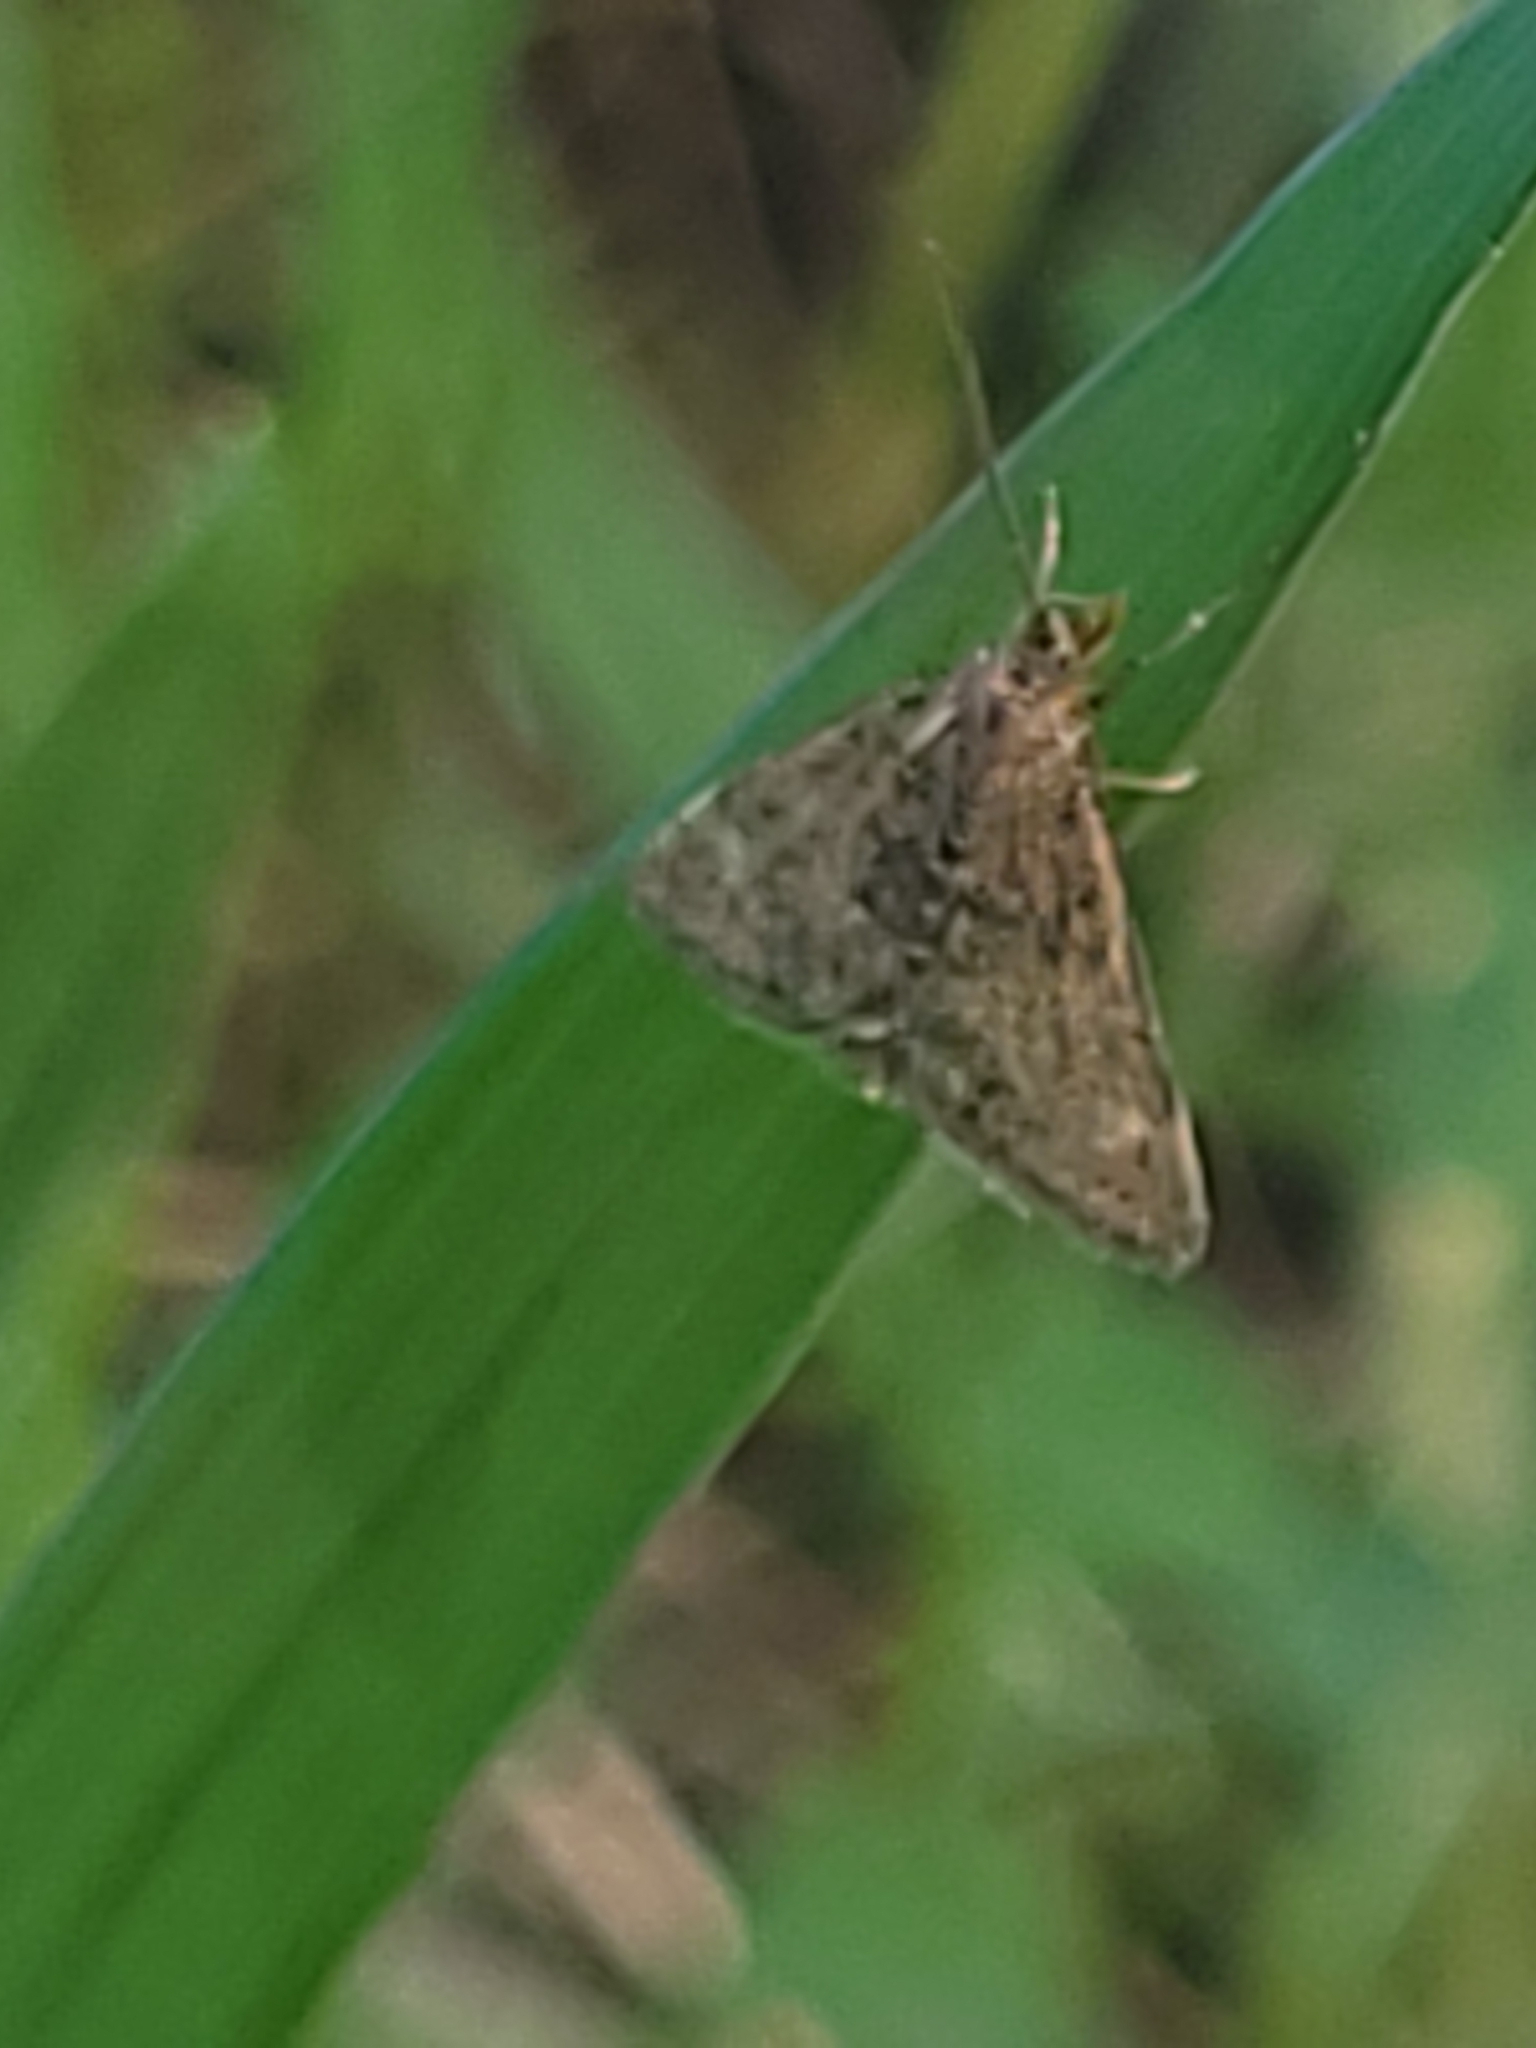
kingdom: Animalia
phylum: Arthropoda
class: Insecta
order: Lepidoptera
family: Crambidae
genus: Pyrausta
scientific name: Pyrausta despicata
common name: Straw-barred pearl
